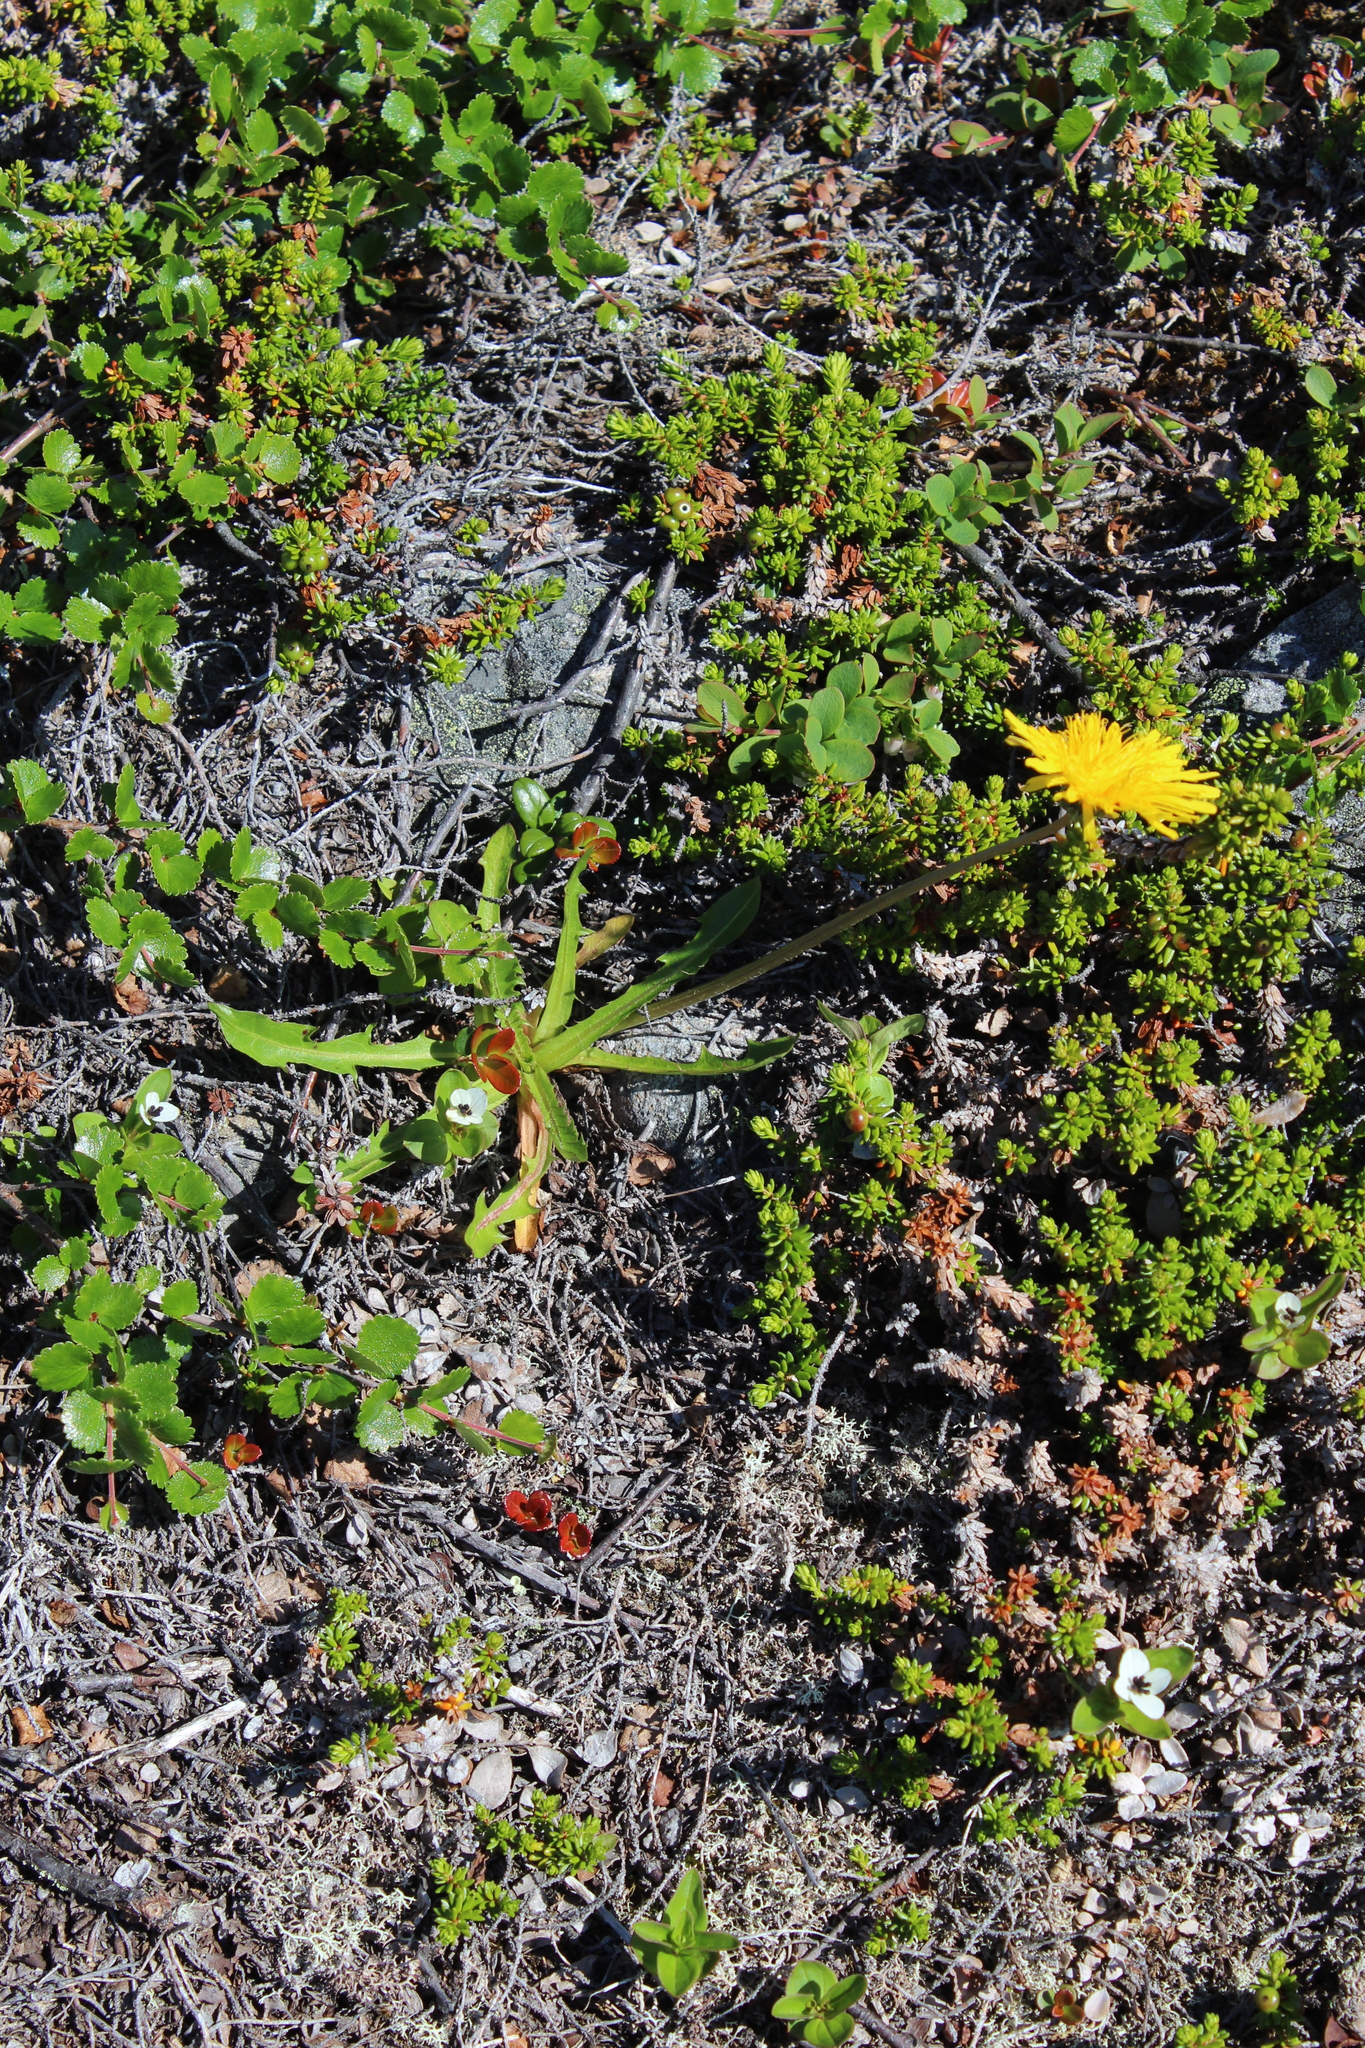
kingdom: Plantae
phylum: Tracheophyta
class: Magnoliopsida
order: Asterales
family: Asteraceae
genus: Taraxacum
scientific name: Taraxacum croceum
